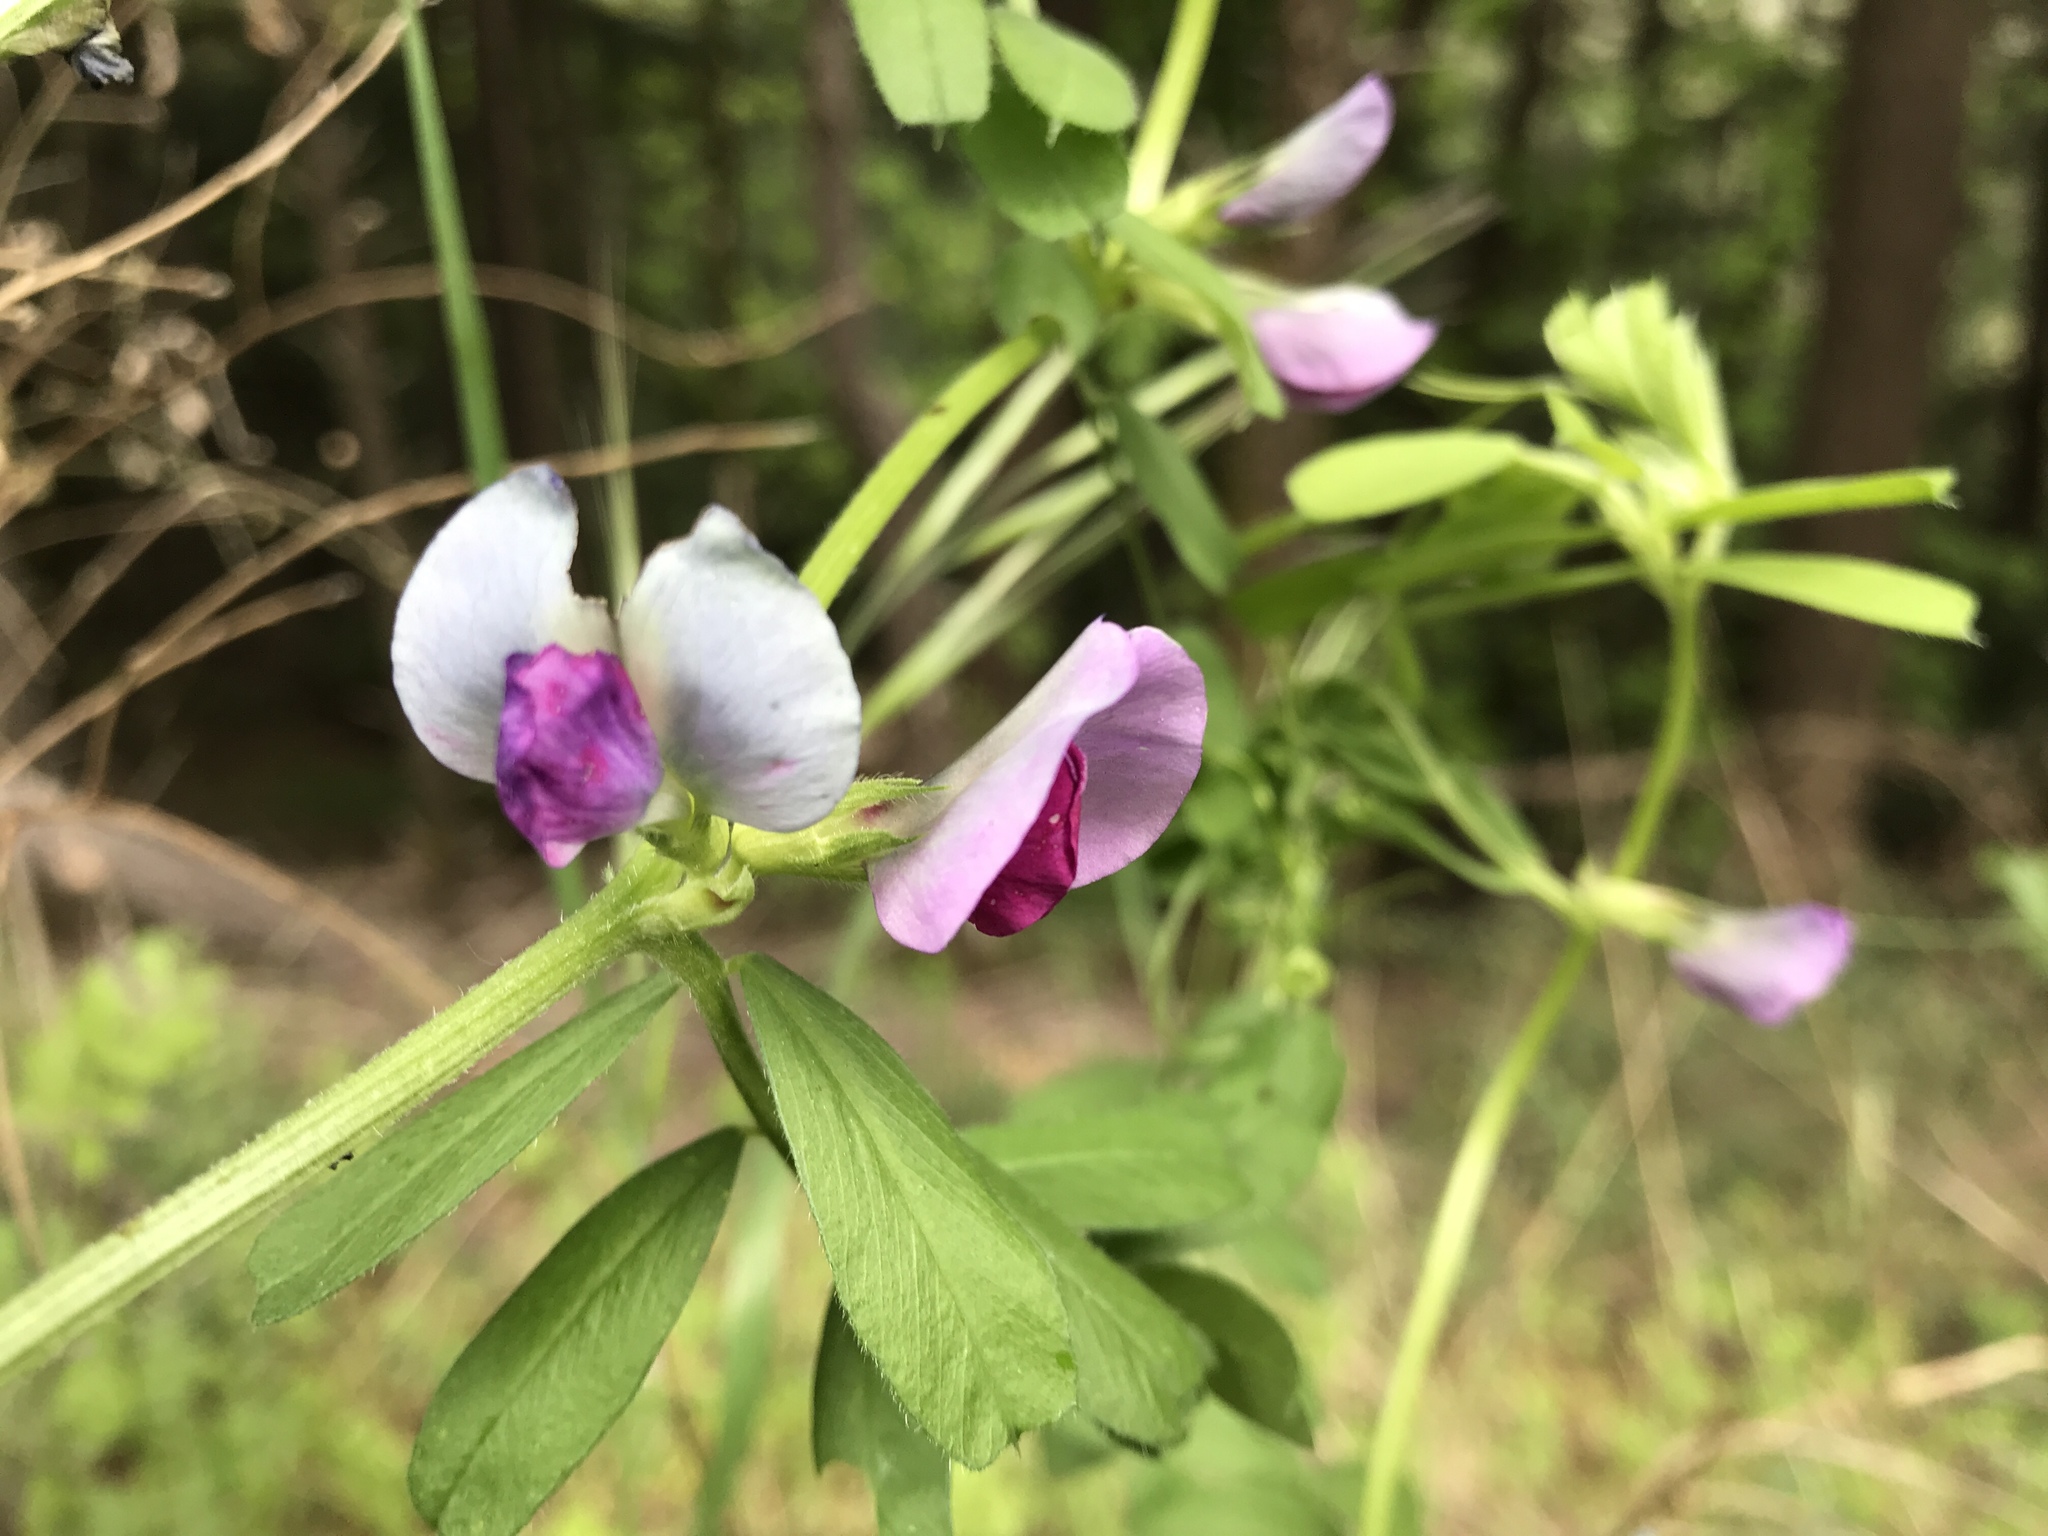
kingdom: Plantae
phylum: Tracheophyta
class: Magnoliopsida
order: Fabales
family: Fabaceae
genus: Vicia
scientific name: Vicia sativa
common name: Garden vetch
